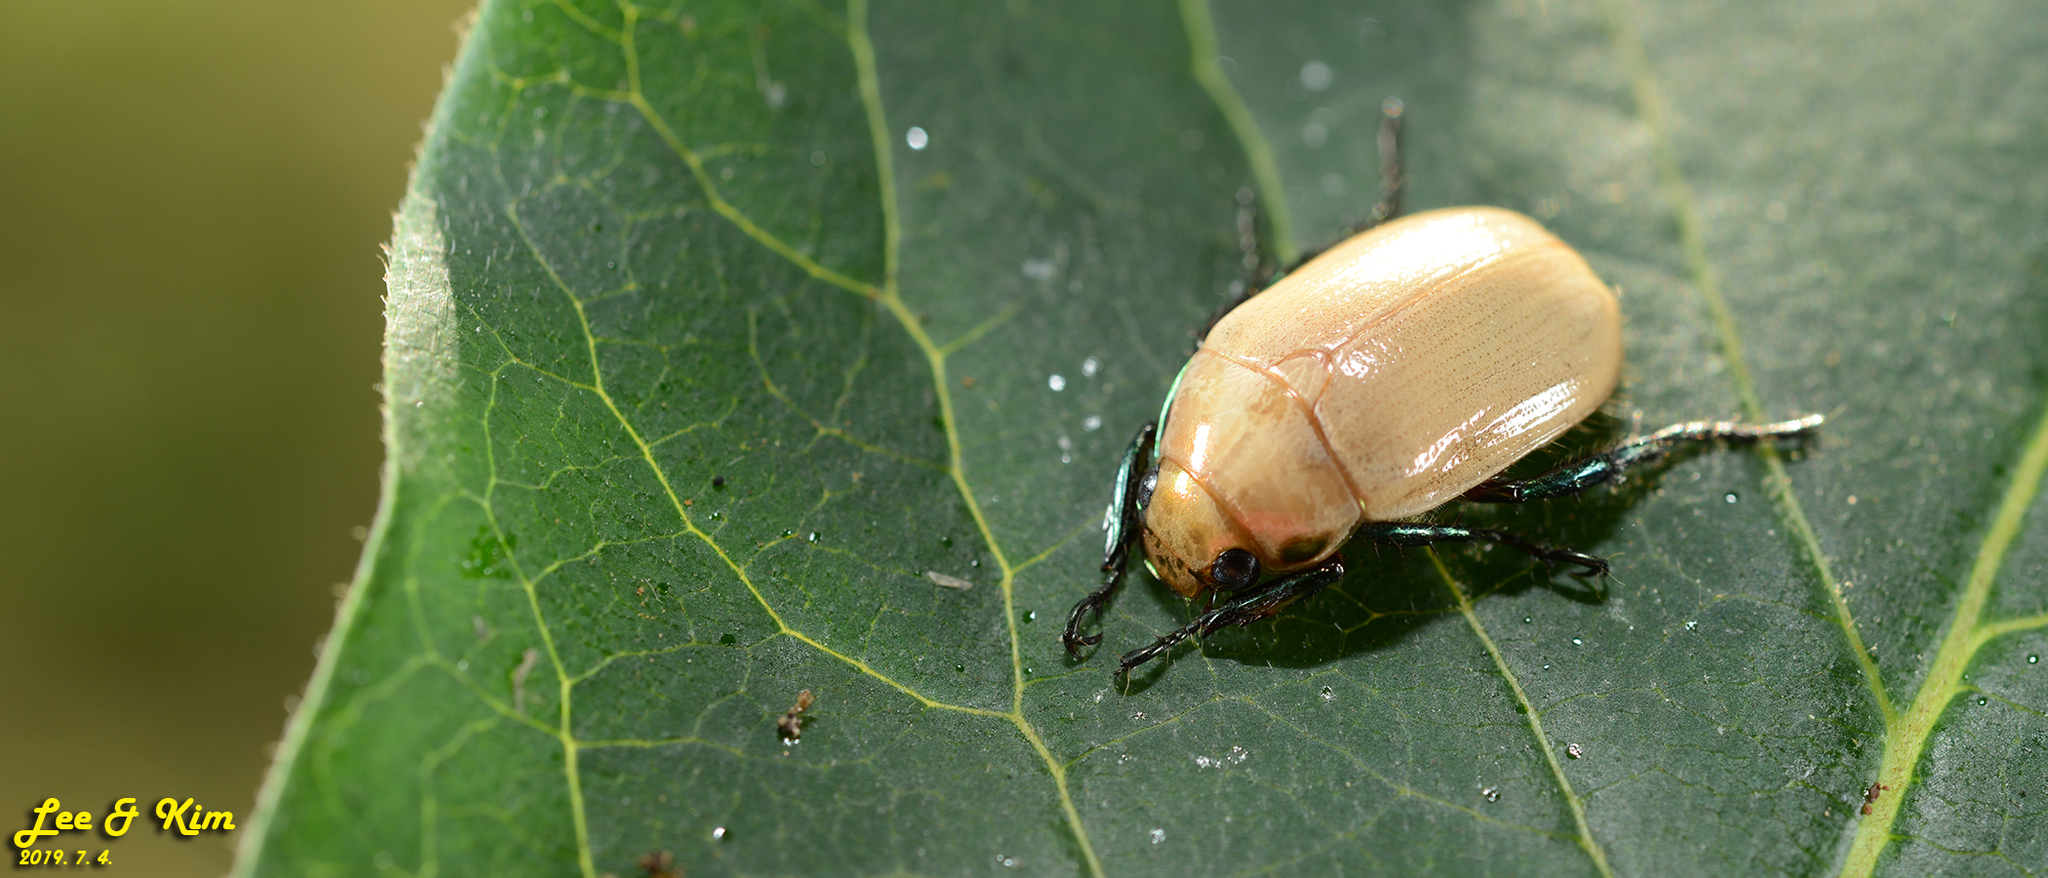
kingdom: Animalia
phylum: Arthropoda
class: Insecta
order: Coleoptera
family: Scarabaeidae
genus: Callistethus
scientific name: Callistethus plagiicollis
